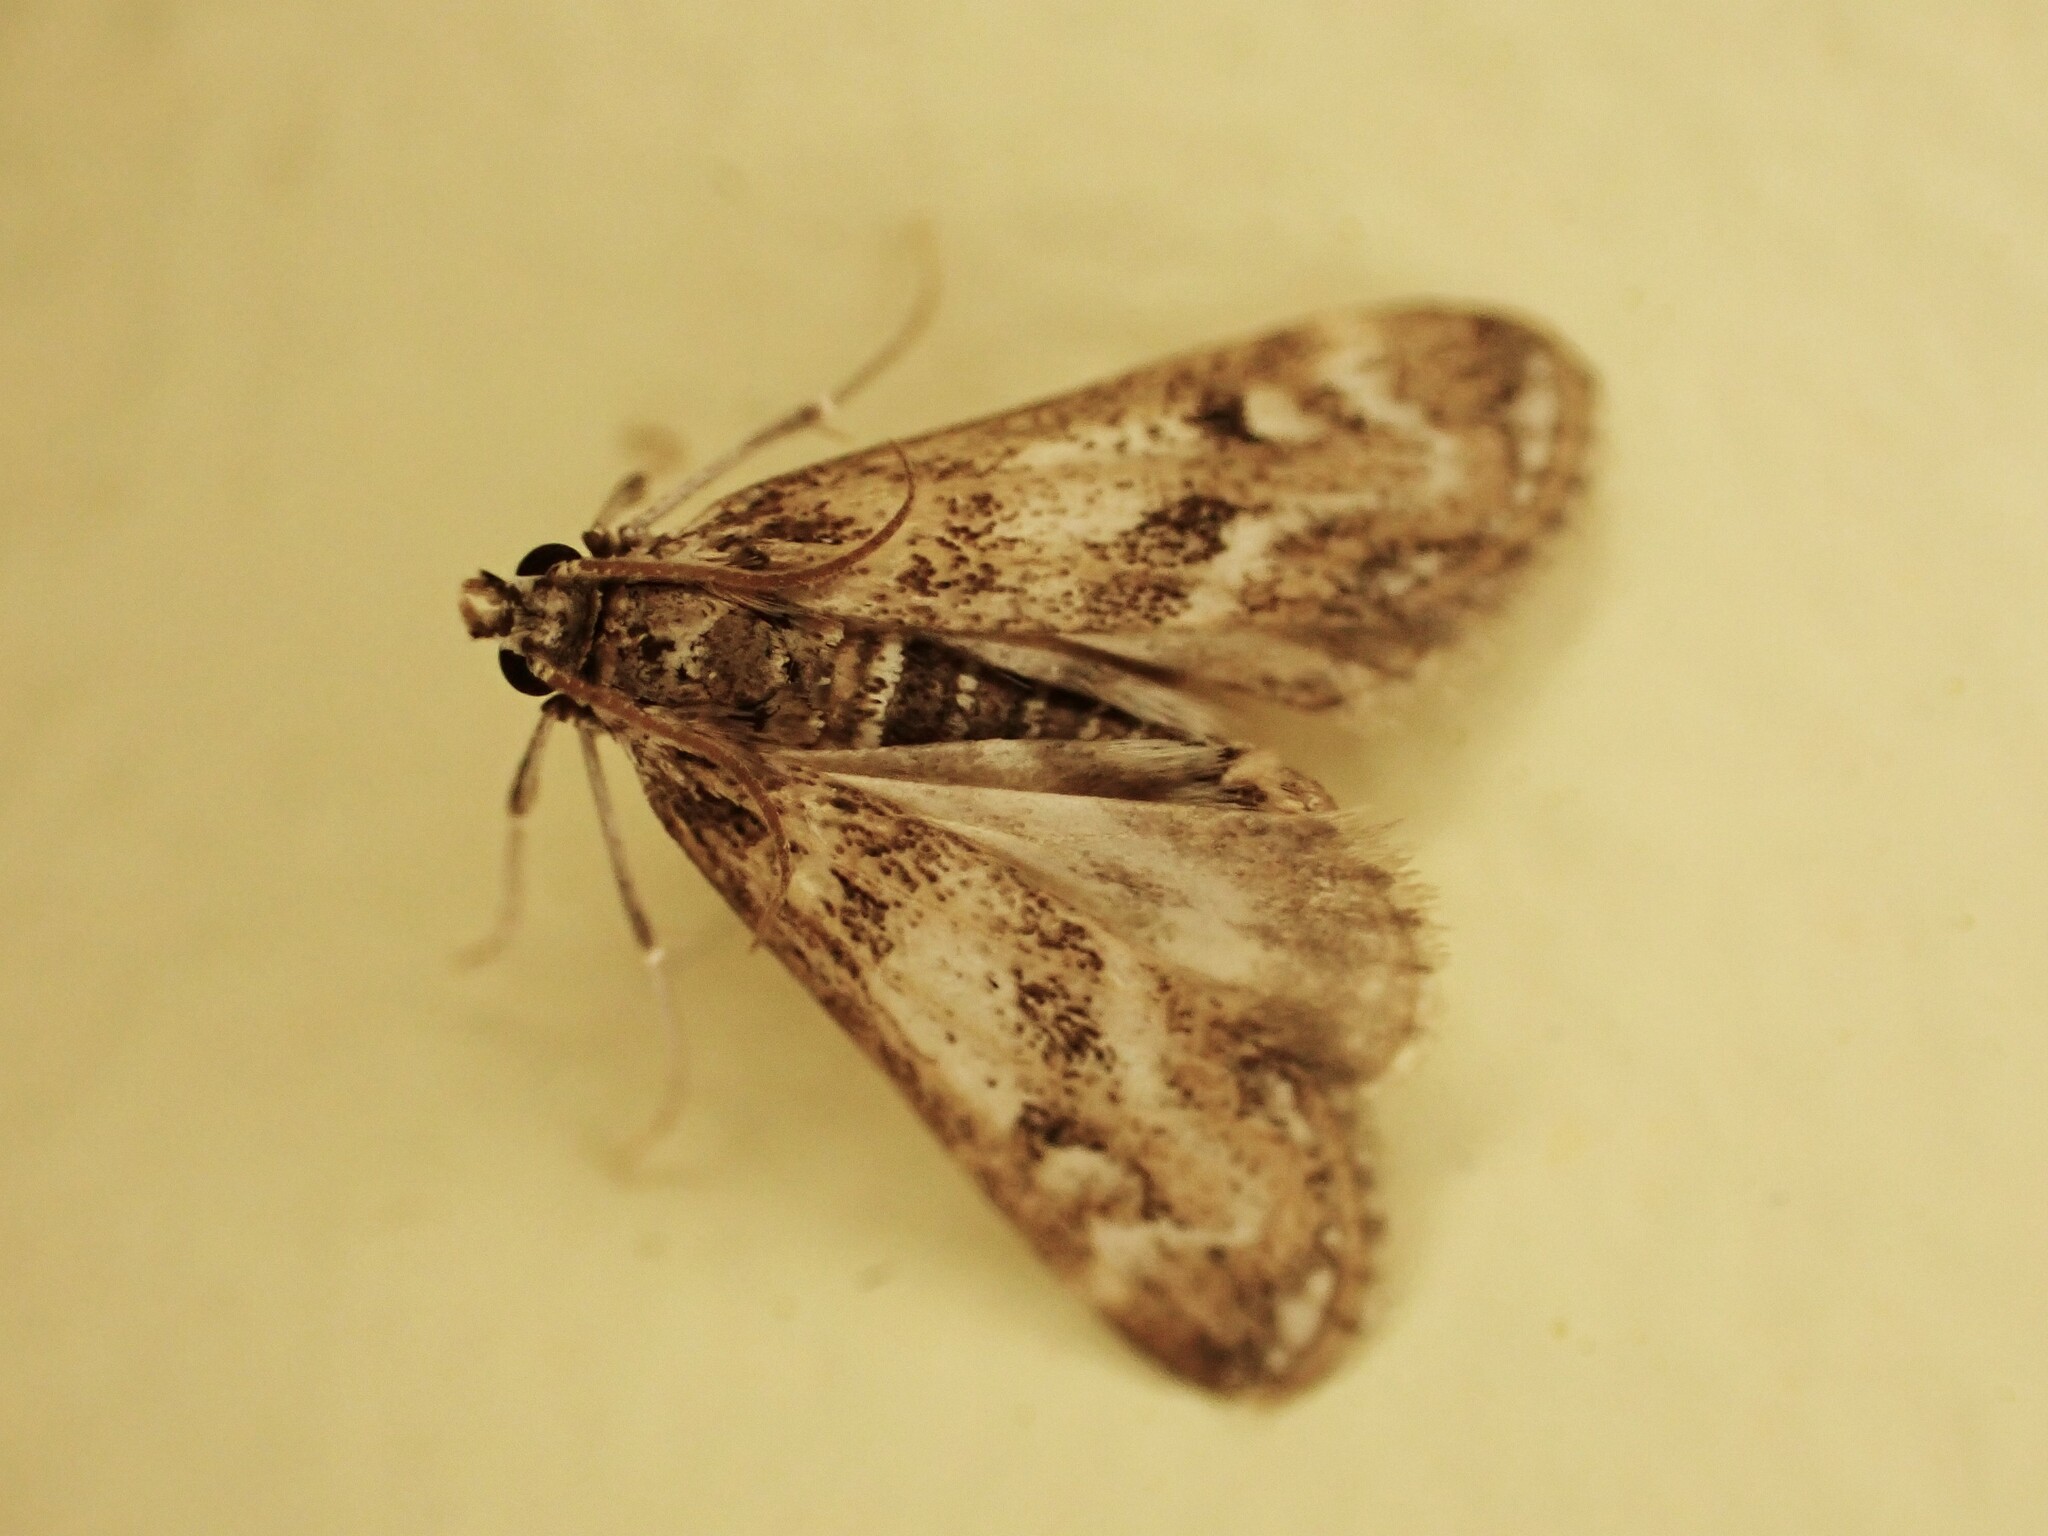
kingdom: Animalia
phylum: Arthropoda
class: Insecta
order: Lepidoptera
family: Crambidae
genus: Hygraula
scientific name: Hygraula nitens
